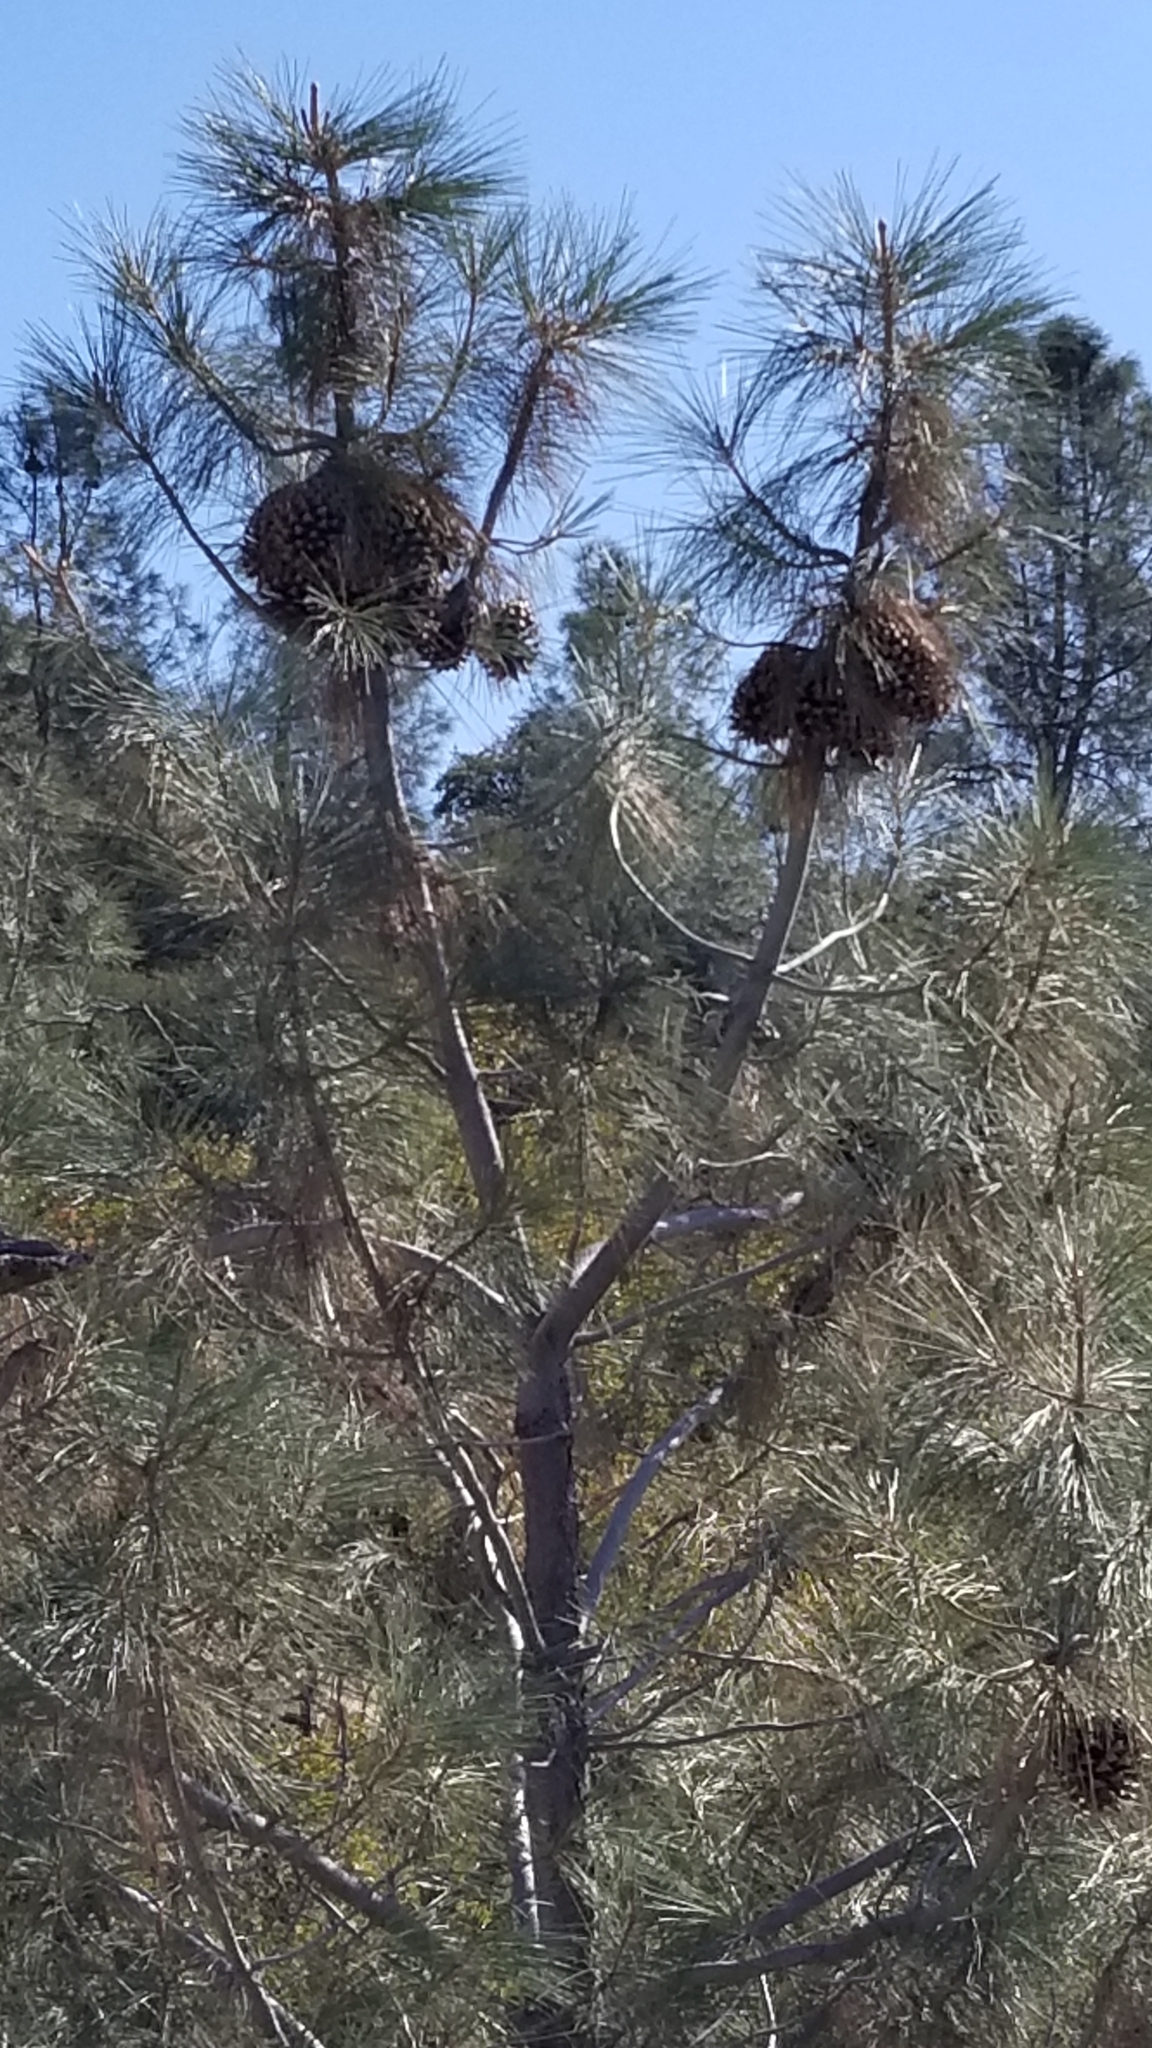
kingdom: Plantae
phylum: Tracheophyta
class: Pinopsida
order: Pinales
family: Pinaceae
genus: Pinus
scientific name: Pinus coulteri
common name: Coulter pine
